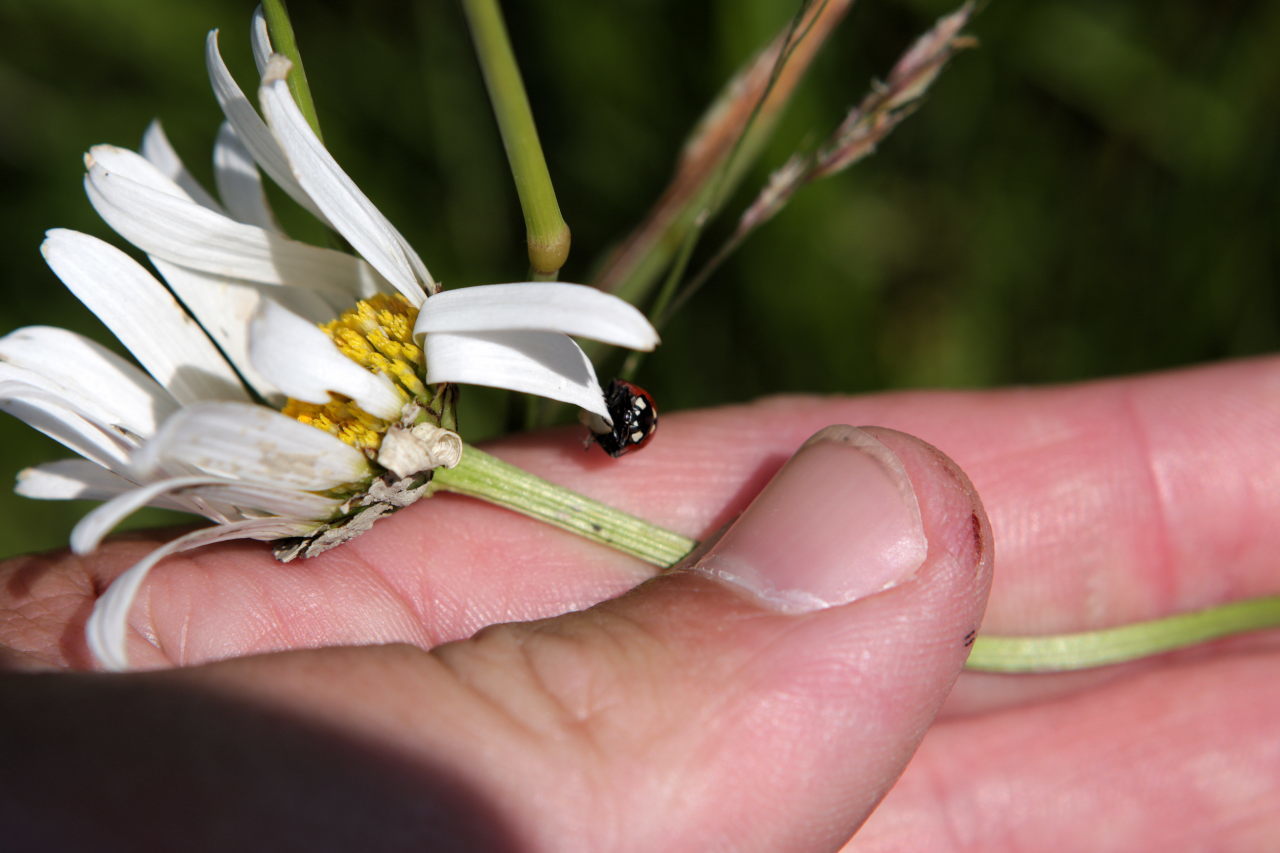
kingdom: Animalia
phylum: Arthropoda
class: Insecta
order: Coleoptera
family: Coccinellidae
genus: Coccinella
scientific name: Coccinella septempunctata
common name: Sevenspotted lady beetle
